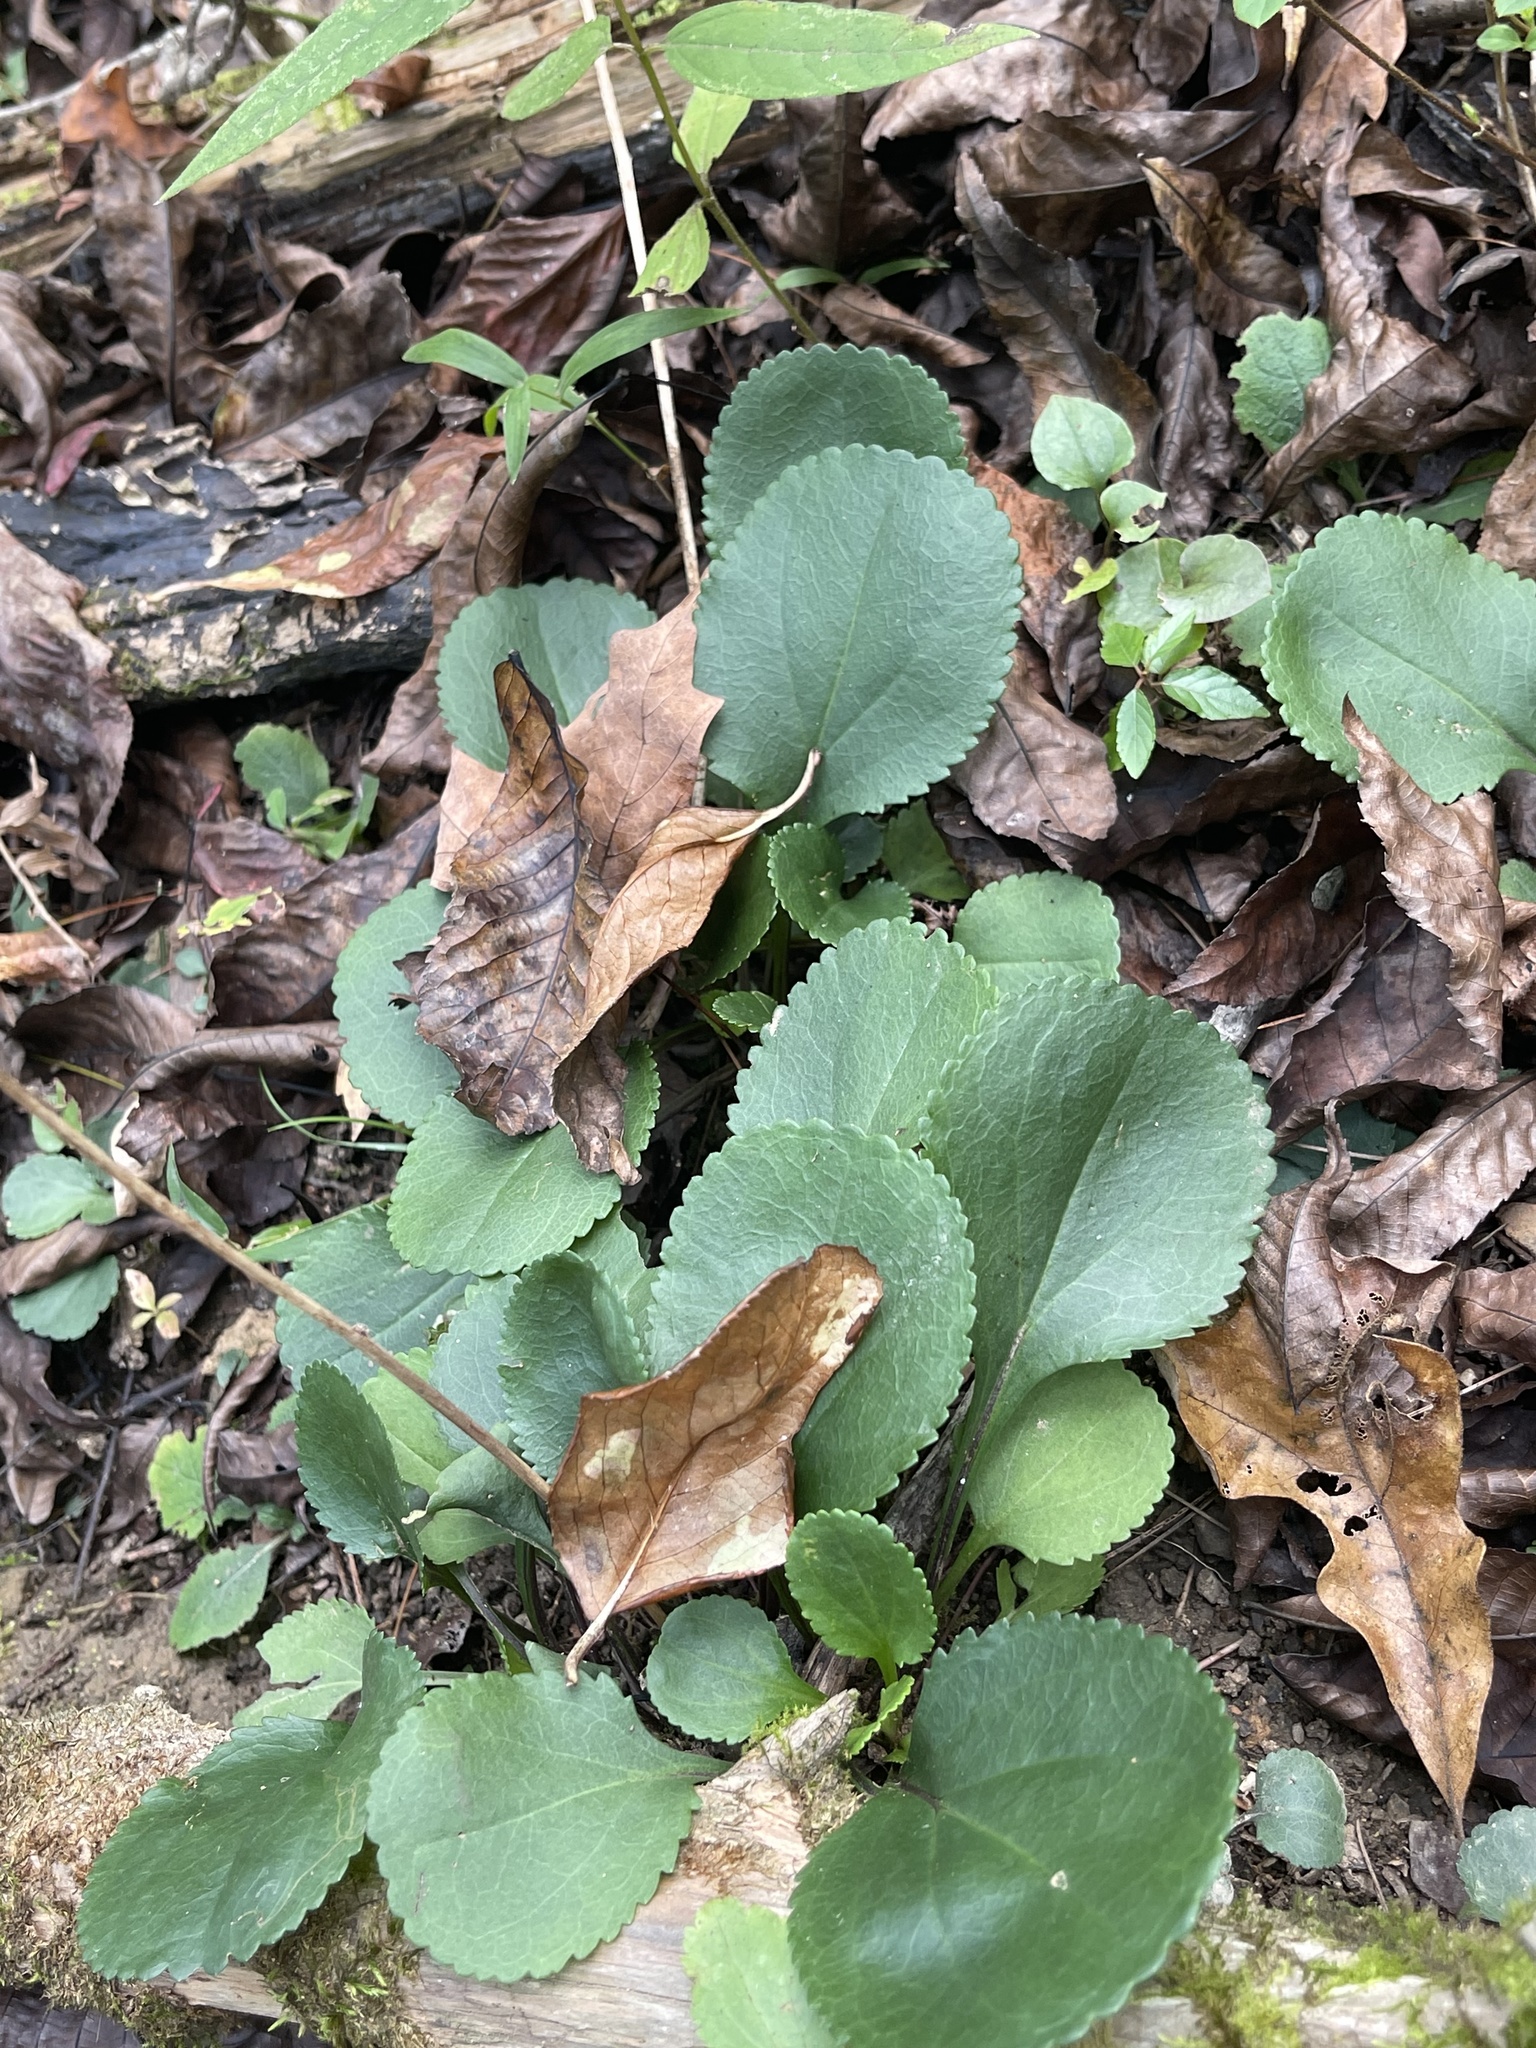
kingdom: Plantae
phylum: Tracheophyta
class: Magnoliopsida
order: Asterales
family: Asteraceae
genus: Packera
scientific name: Packera aurea
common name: Golden groundsel
